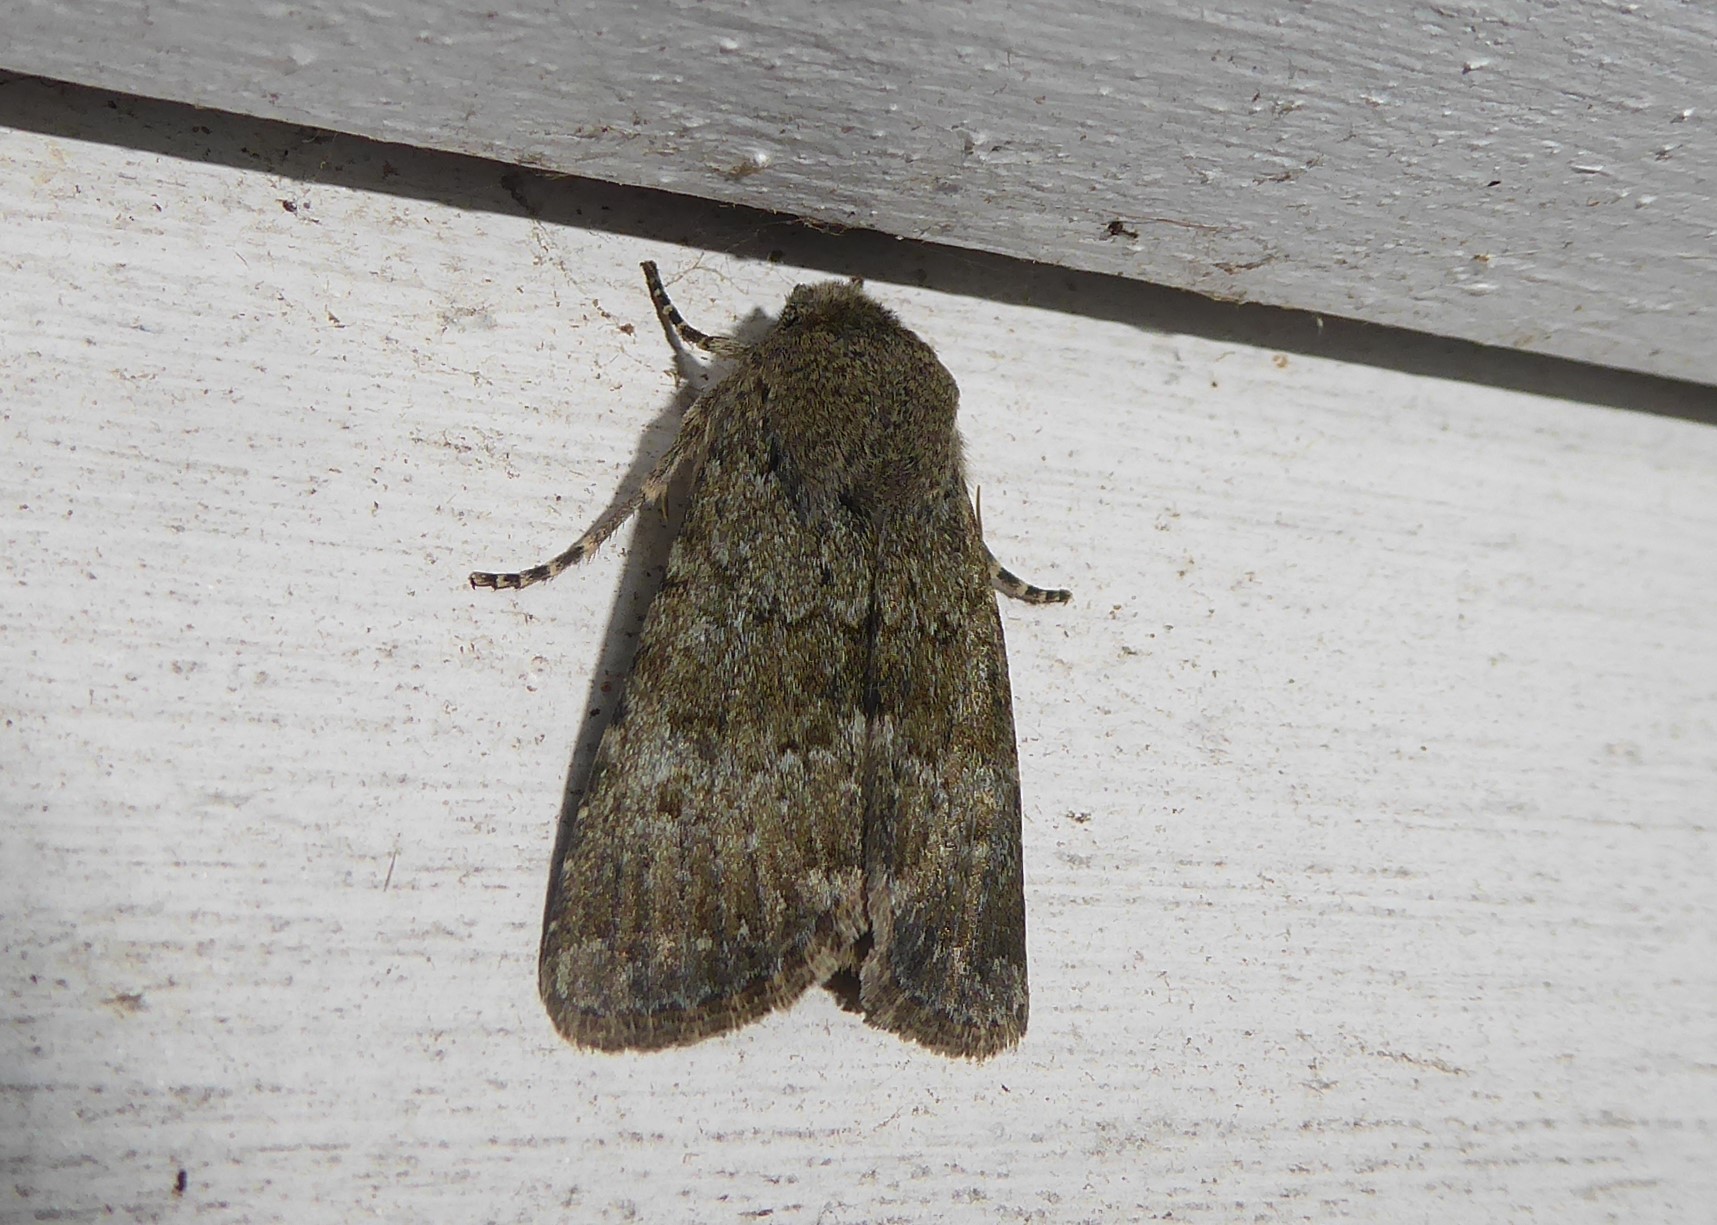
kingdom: Animalia
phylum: Arthropoda
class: Insecta
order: Lepidoptera
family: Noctuidae
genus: Ichneutica
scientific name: Ichneutica moderata
